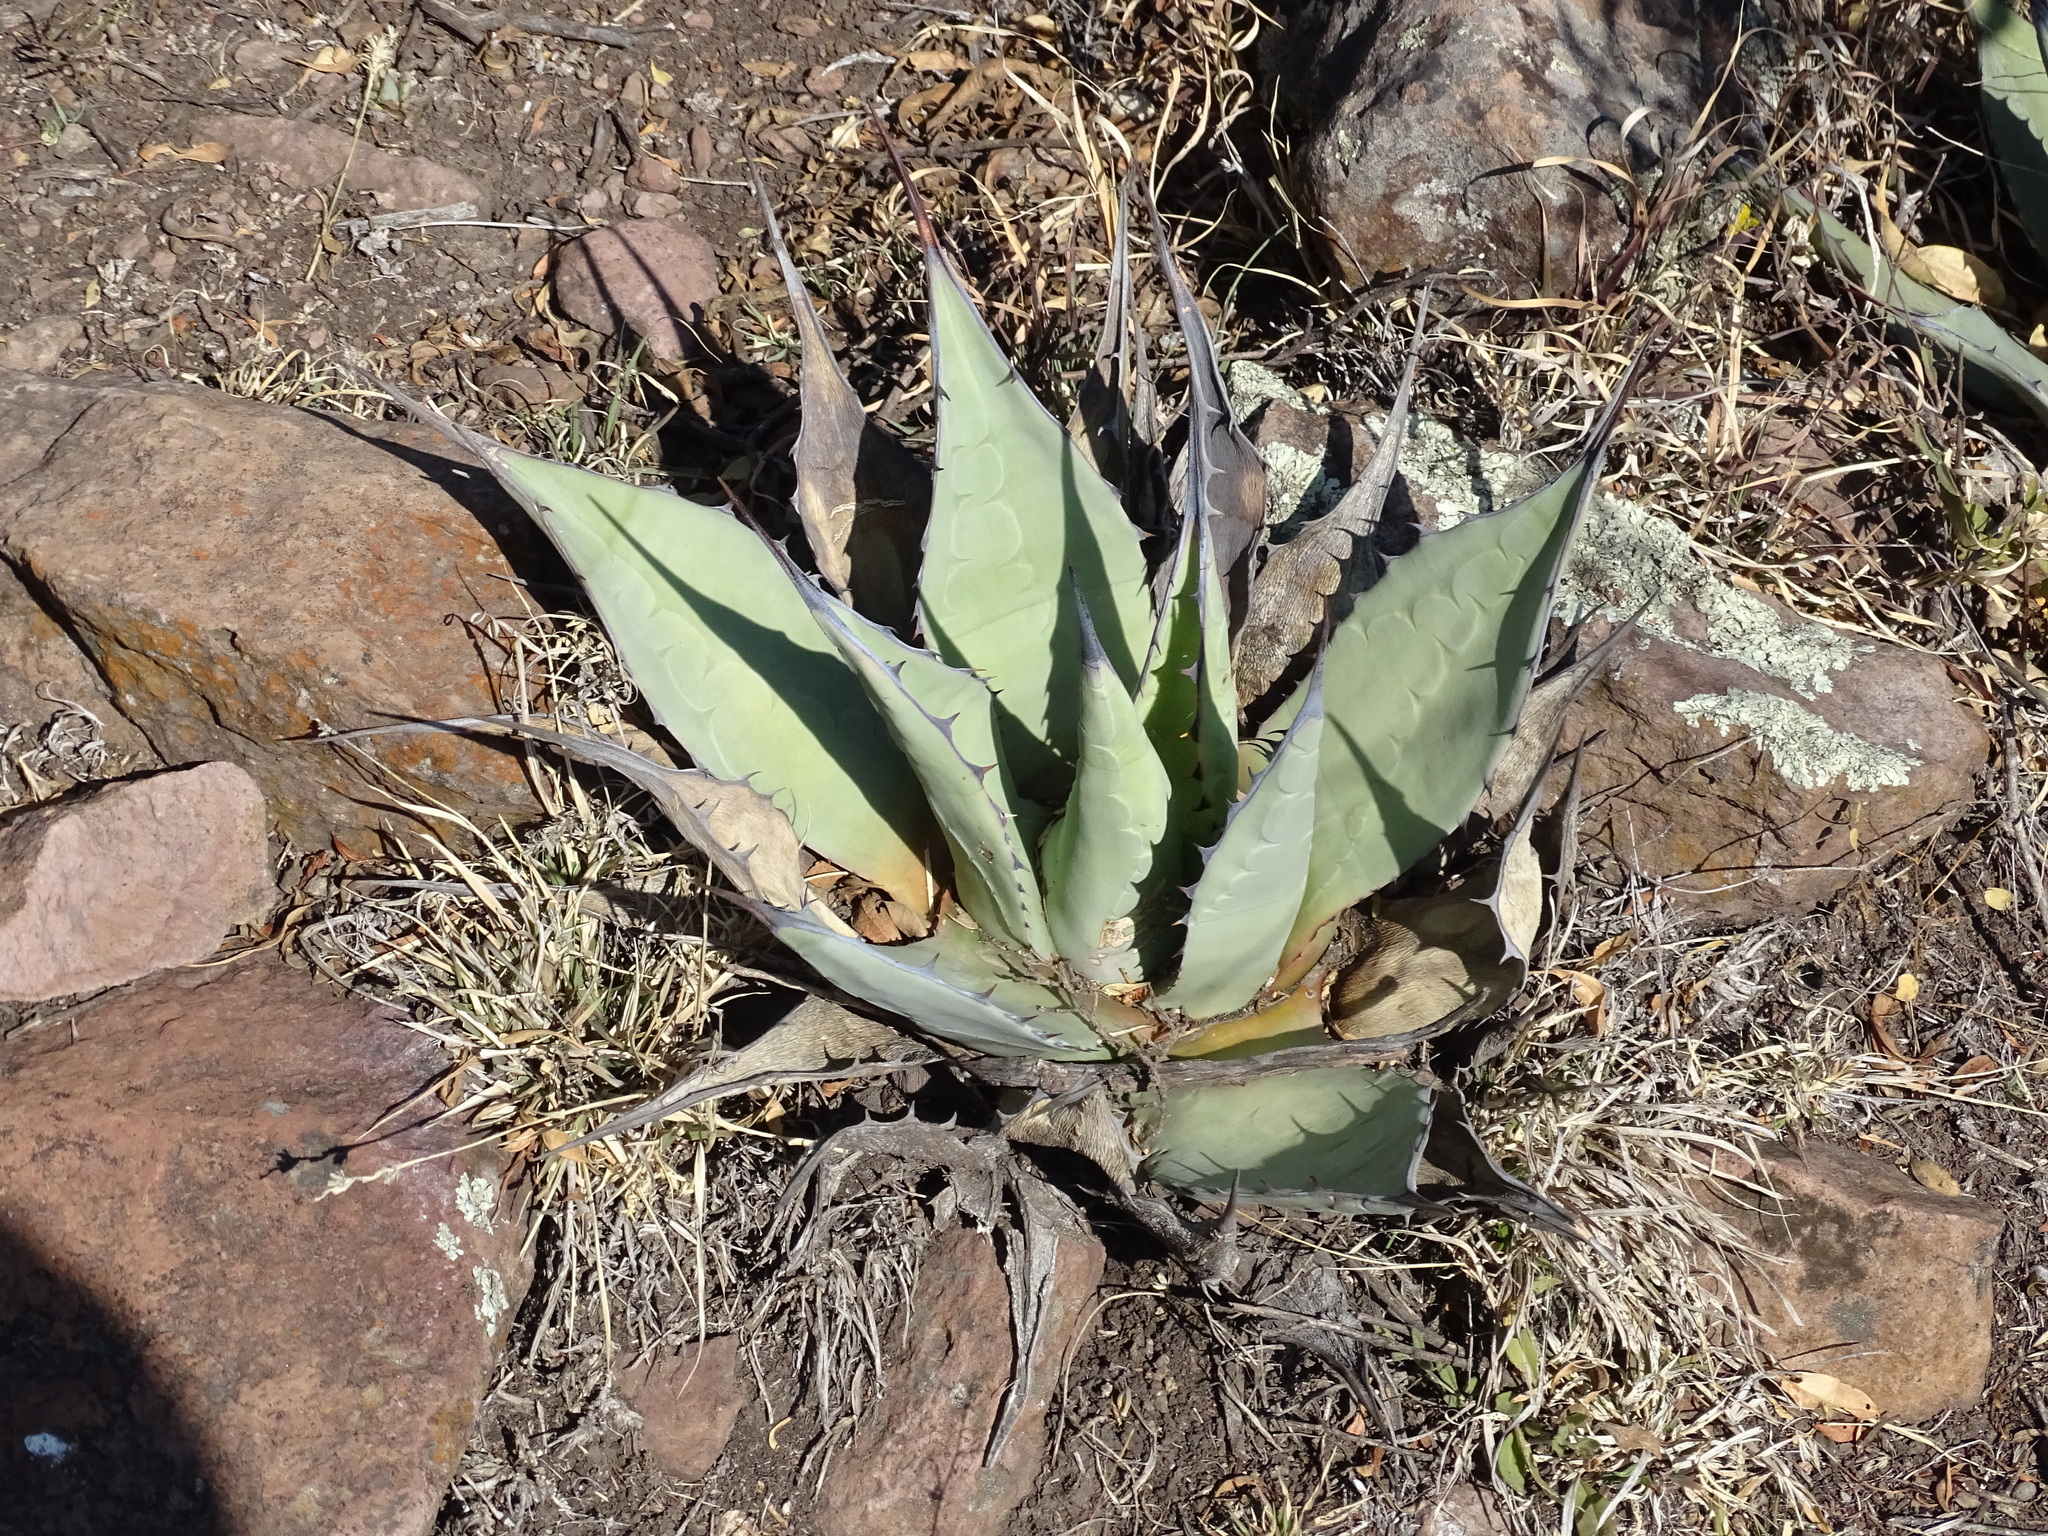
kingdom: Plantae
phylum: Tracheophyta
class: Liliopsida
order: Asparagales
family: Asparagaceae
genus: Agave
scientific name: Agave applanata
